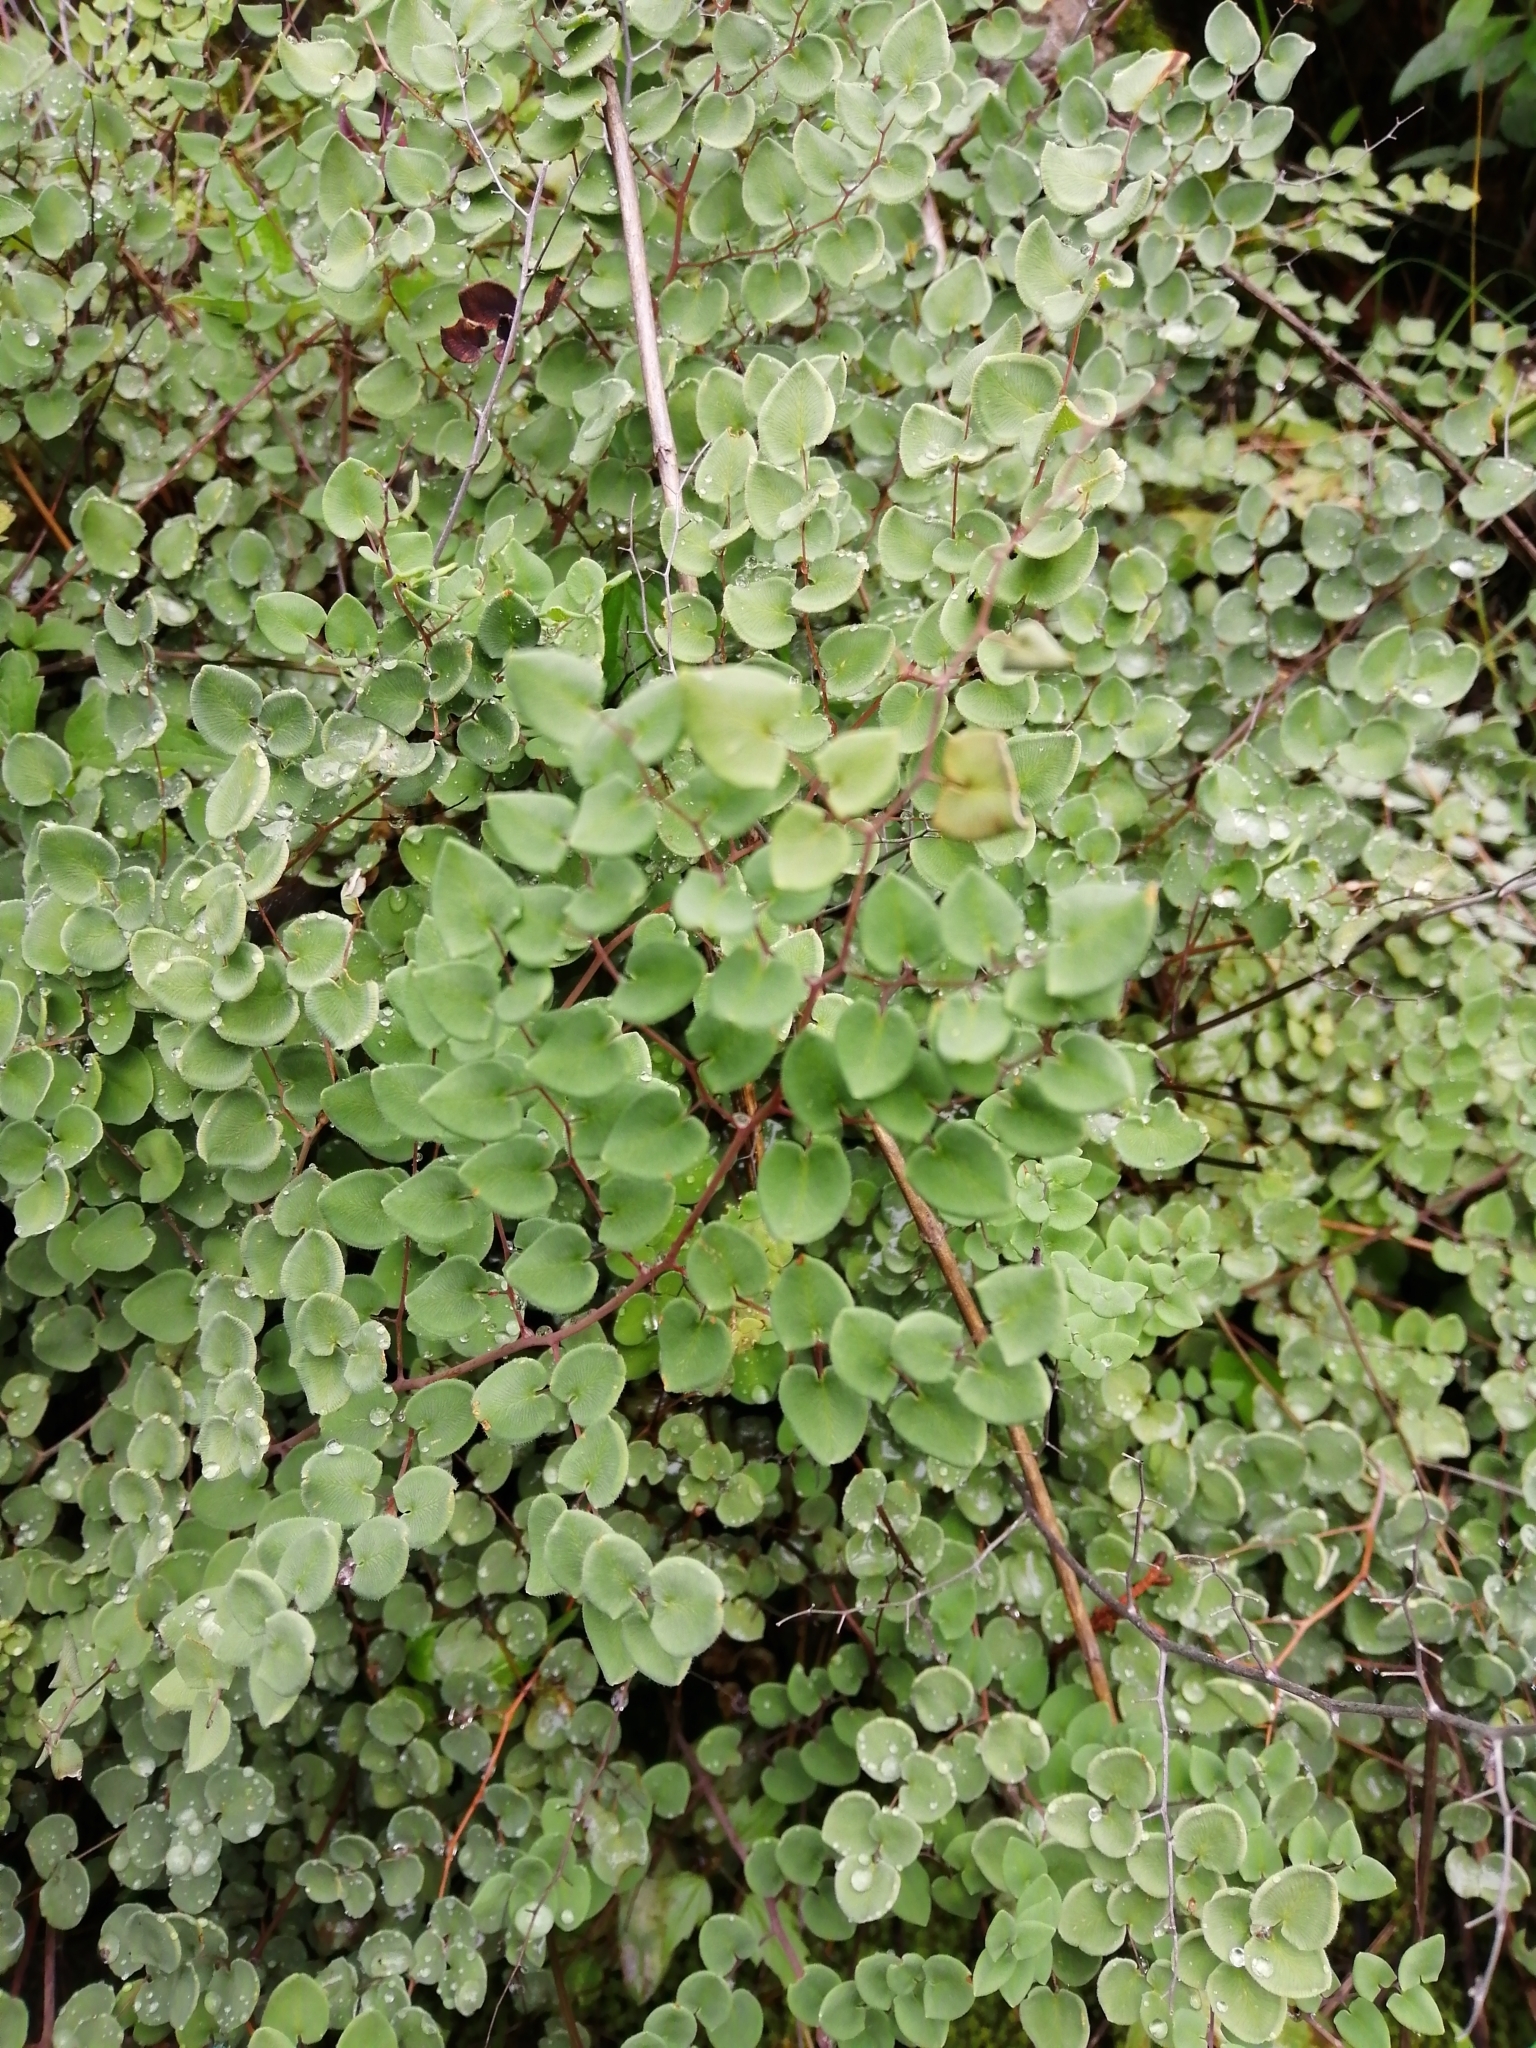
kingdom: Plantae
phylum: Tracheophyta
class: Polypodiopsida
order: Polypodiales
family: Pteridaceae
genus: Pellaea
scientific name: Pellaea cordifolia
